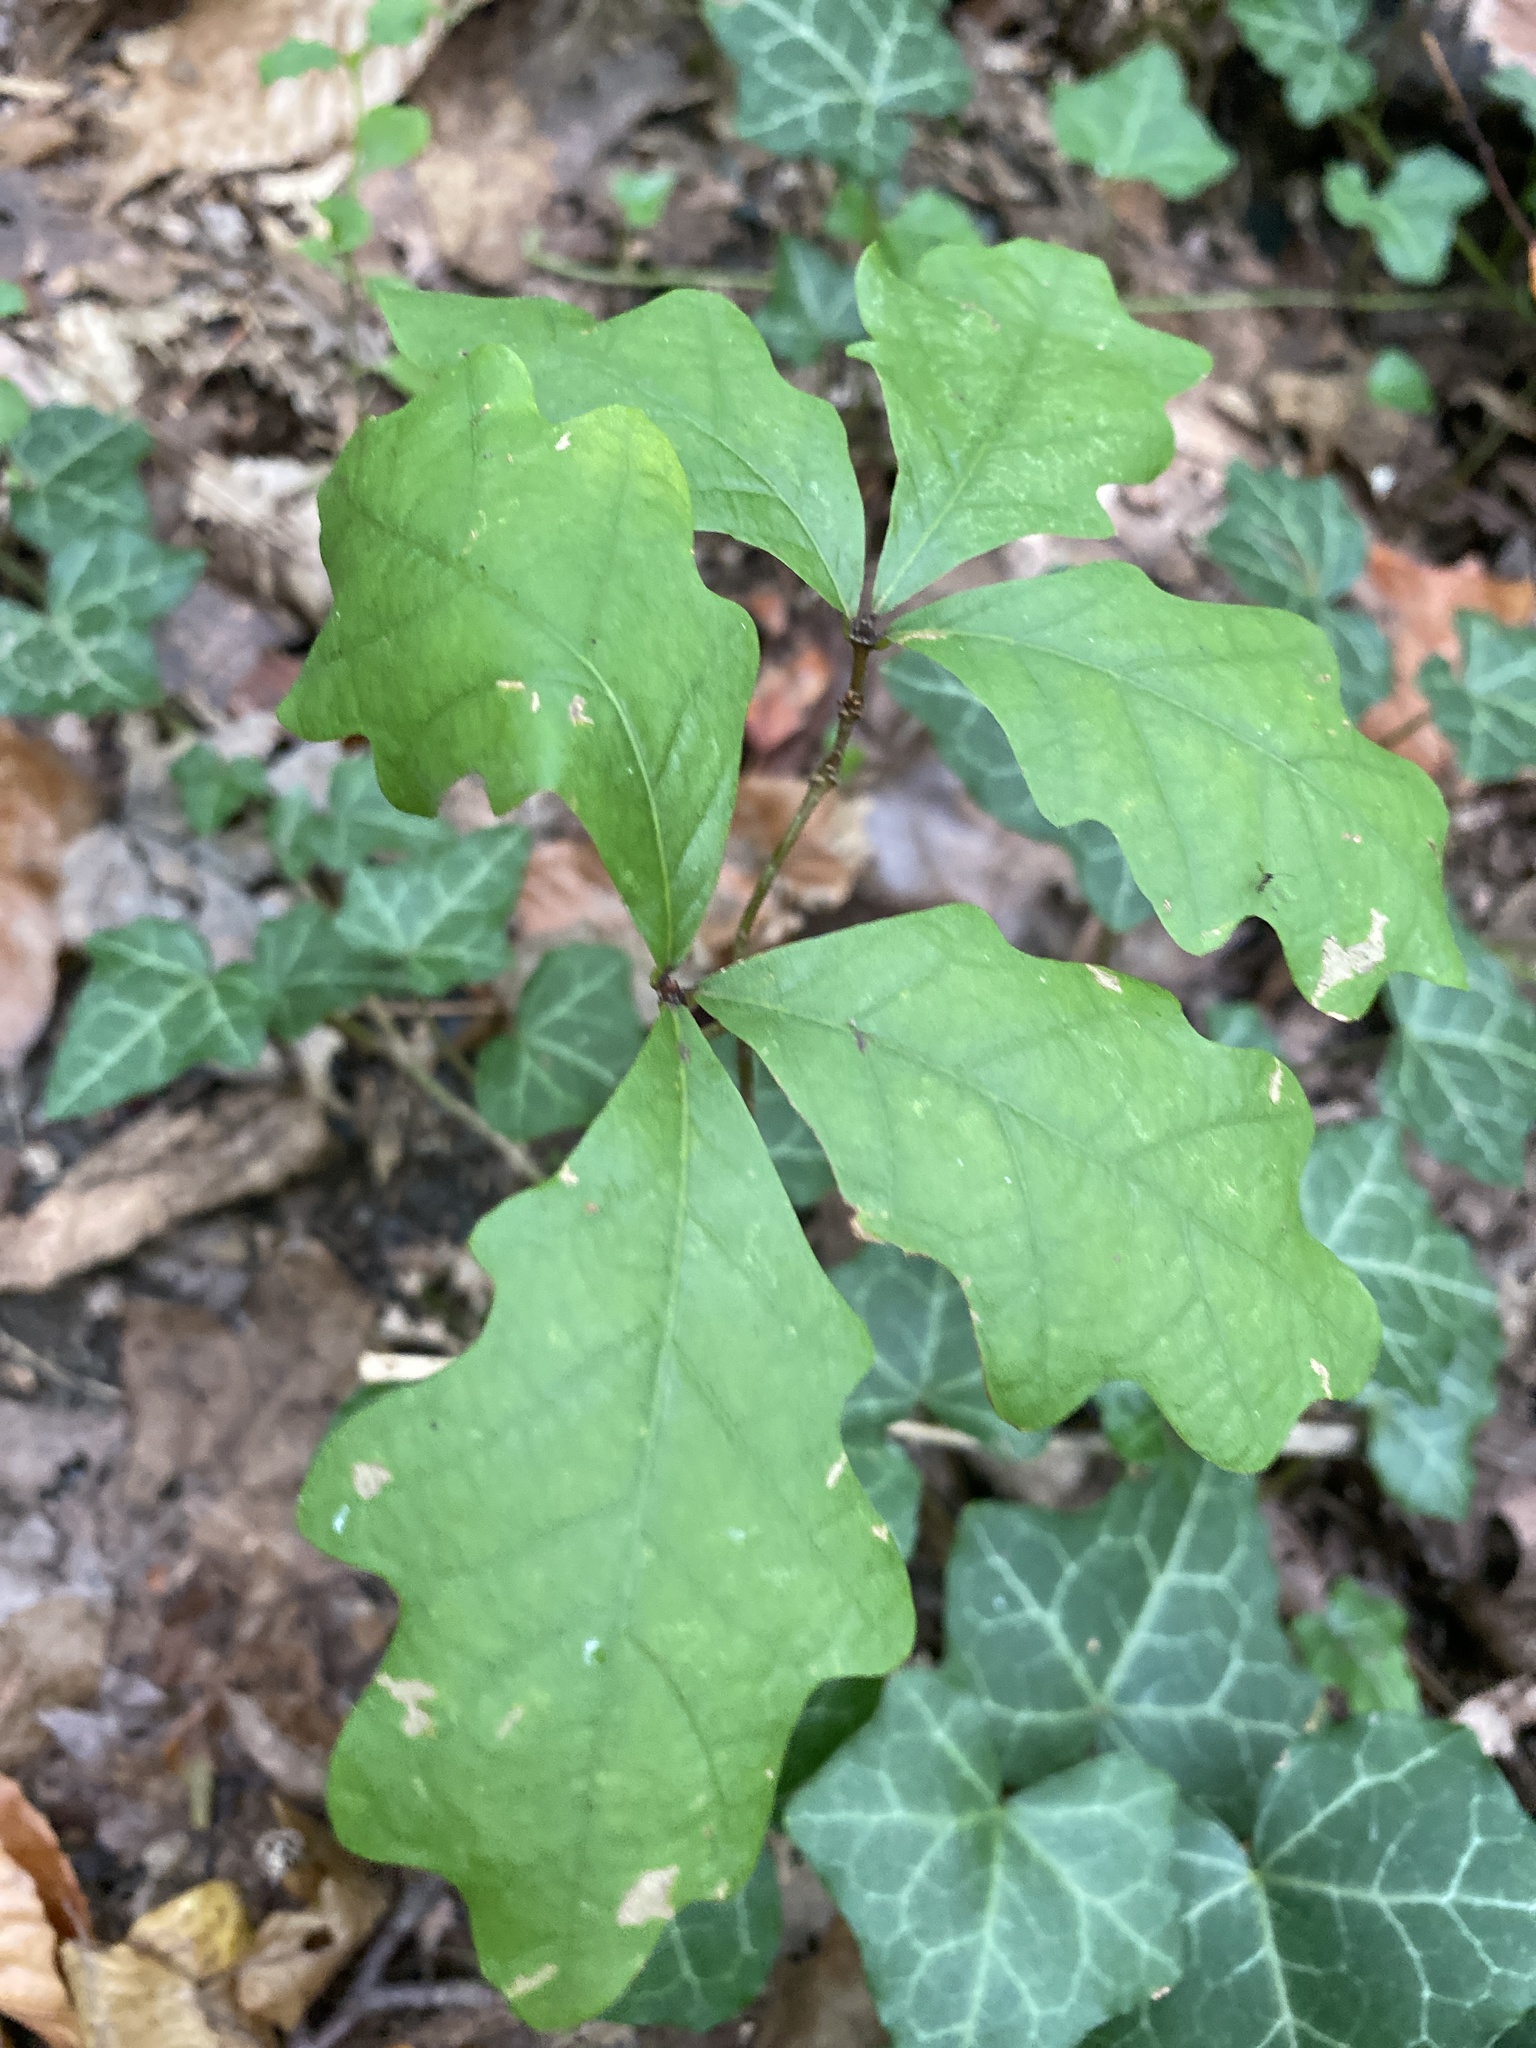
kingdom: Plantae
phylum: Tracheophyta
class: Magnoliopsida
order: Fagales
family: Fagaceae
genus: Quercus
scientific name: Quercus alba
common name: White oak
